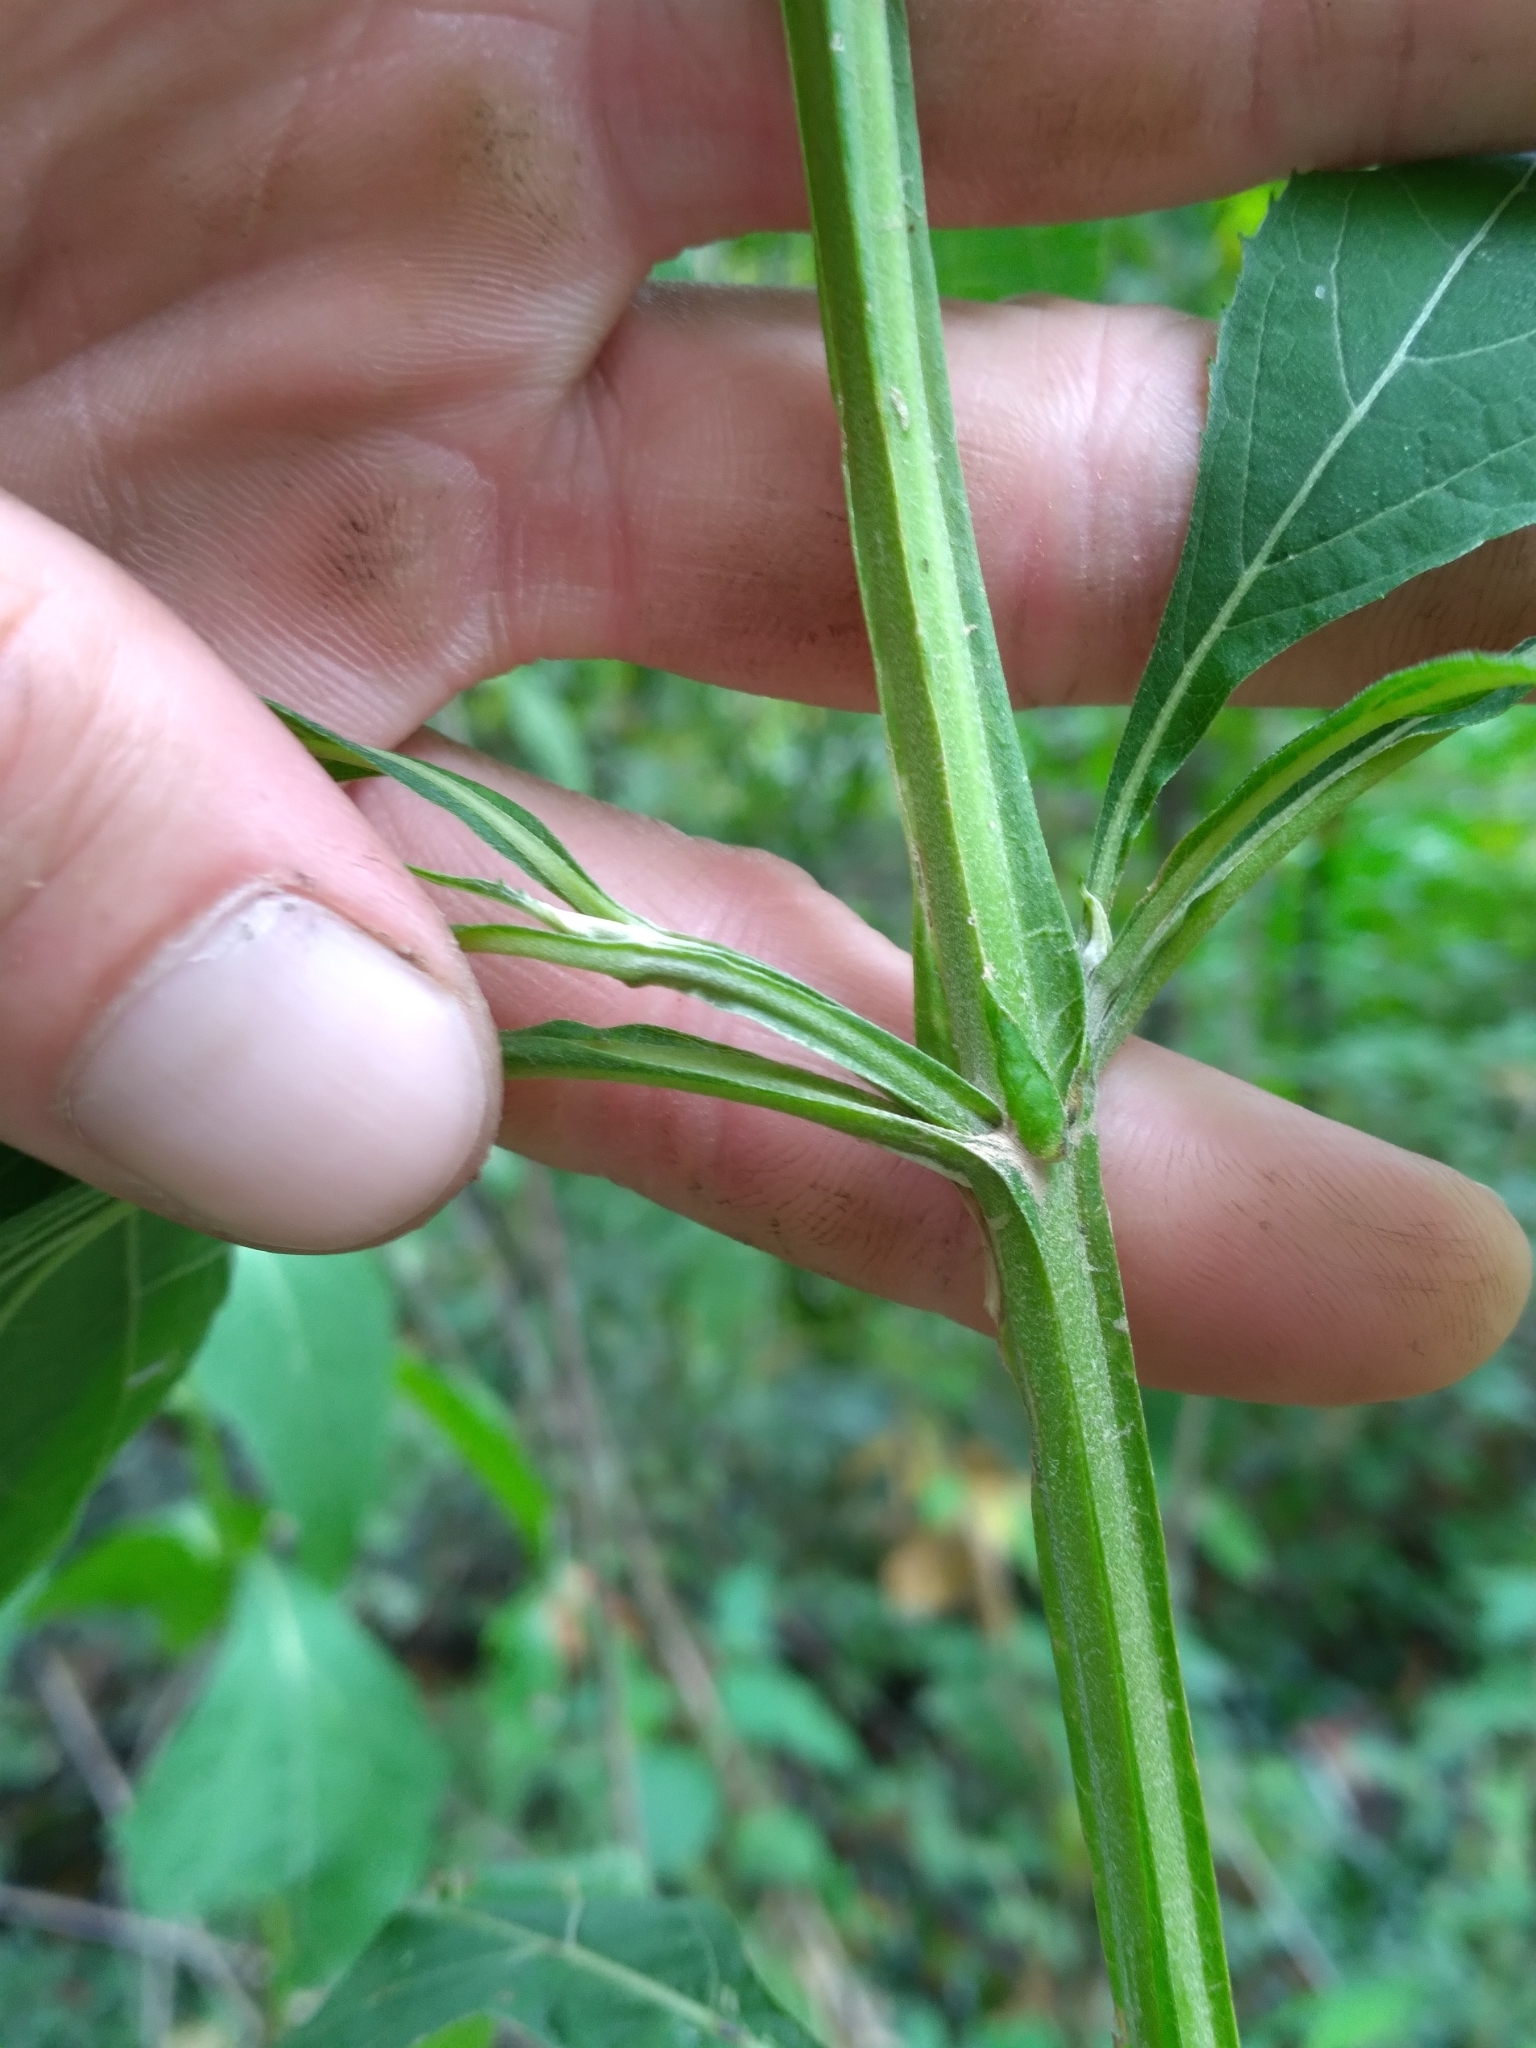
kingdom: Plantae
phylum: Tracheophyta
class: Magnoliopsida
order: Asterales
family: Asteraceae
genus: Verbesina
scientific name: Verbesina occidentalis
